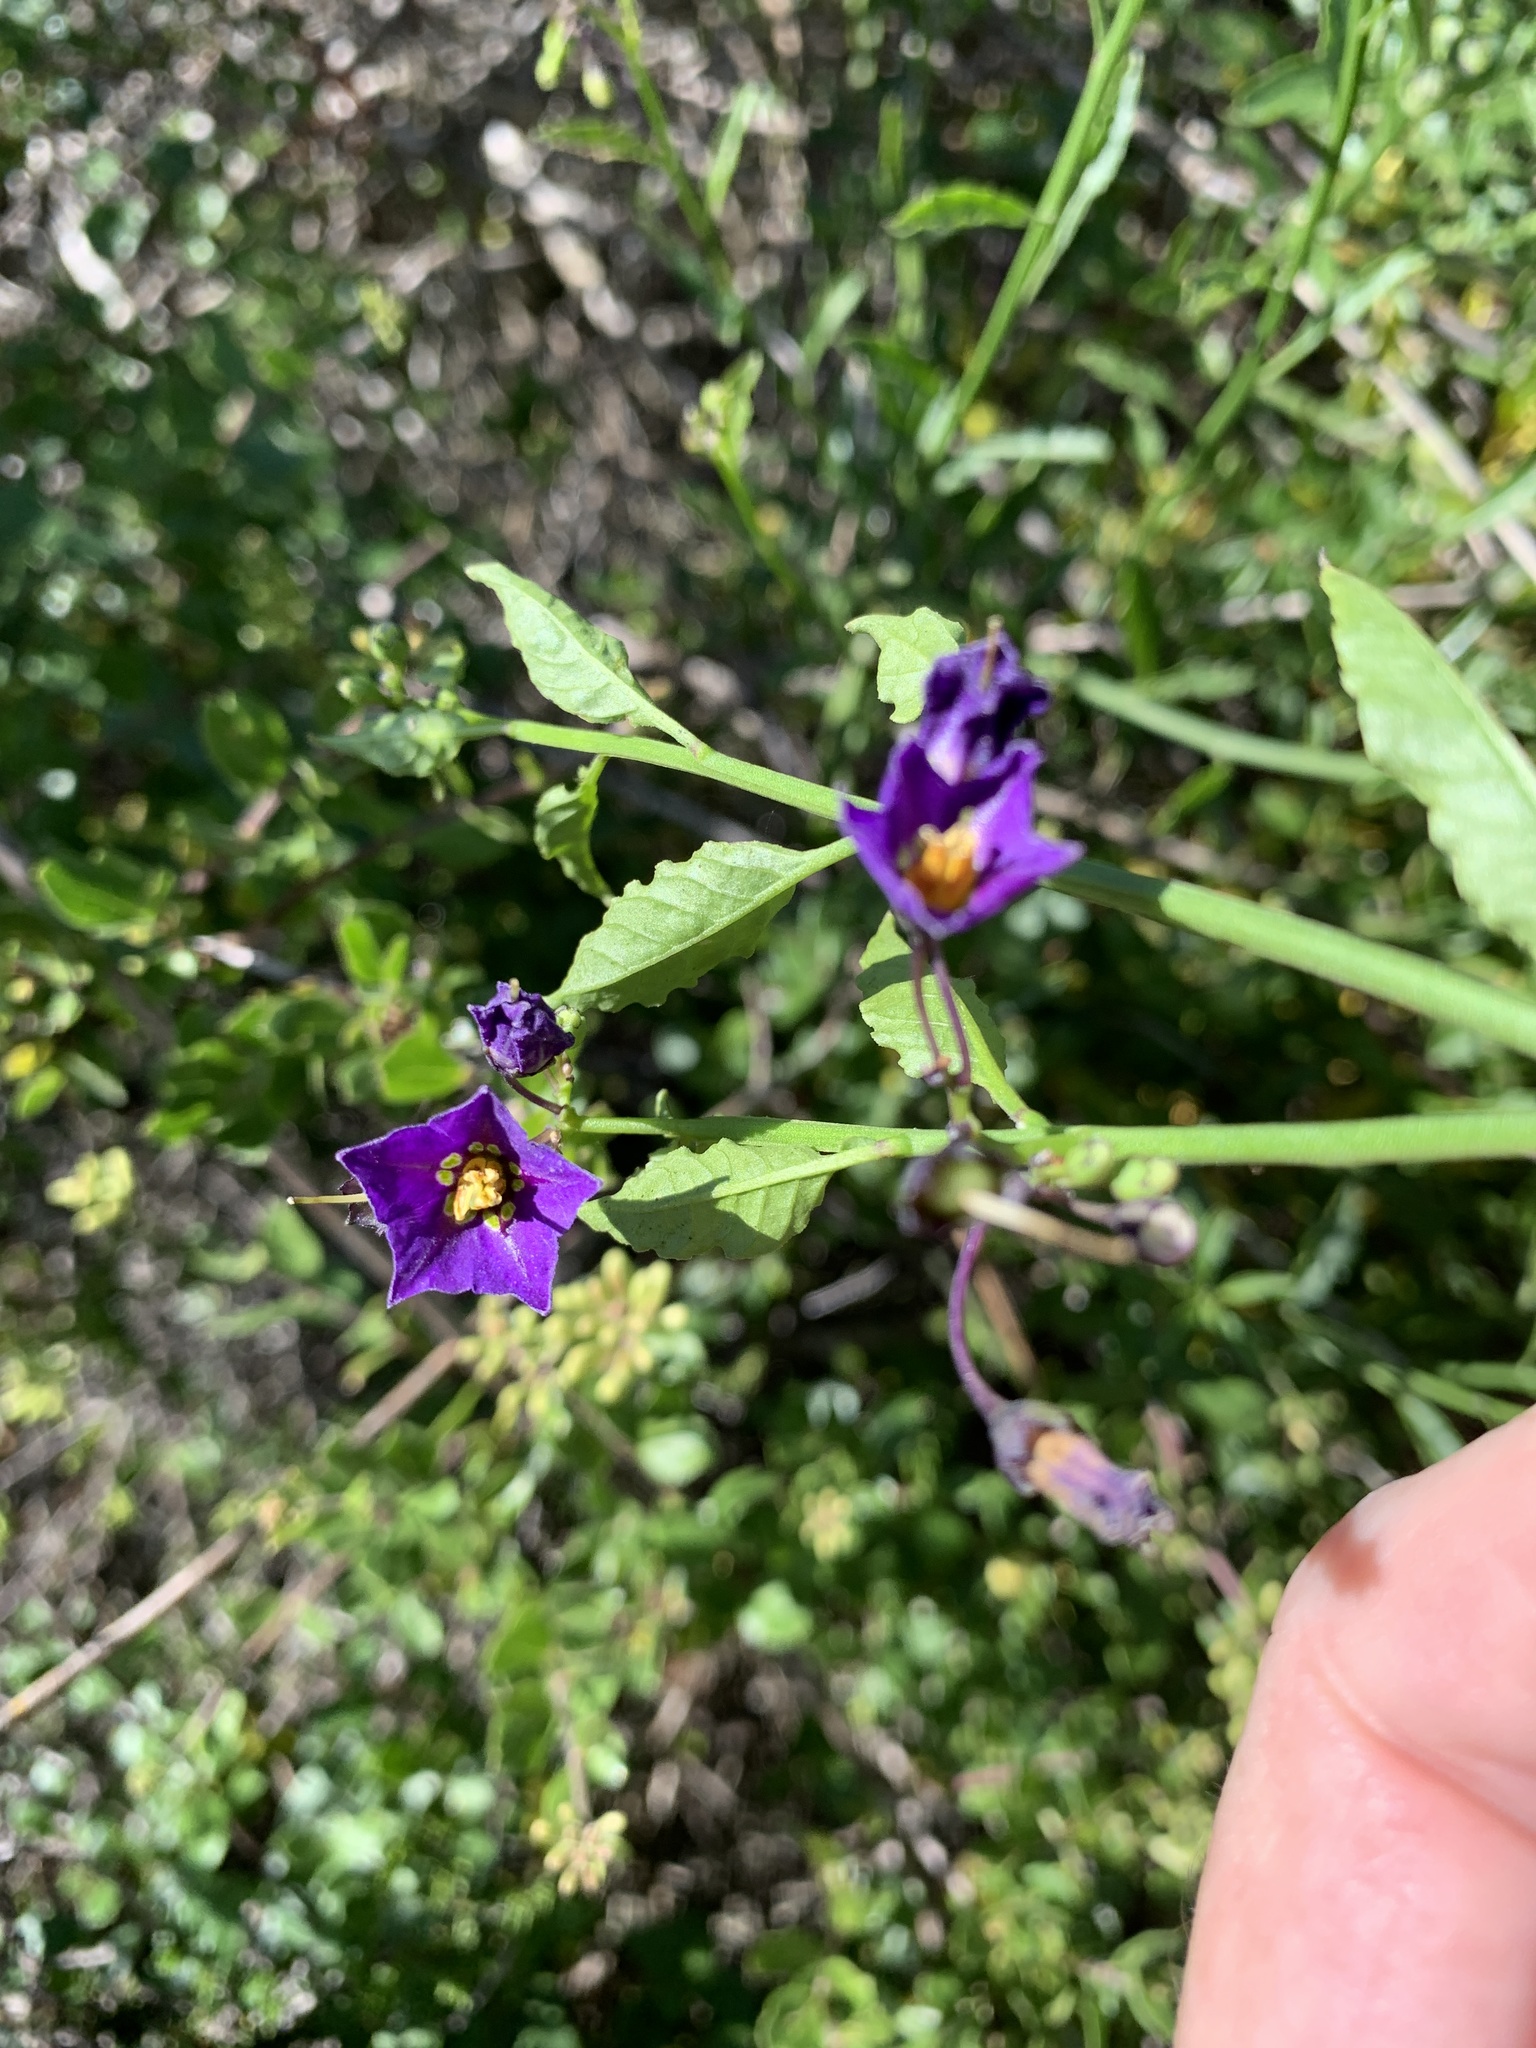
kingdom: Plantae
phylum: Tracheophyta
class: Magnoliopsida
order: Solanales
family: Solanaceae
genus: Solanum
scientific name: Solanum umbelliferum
